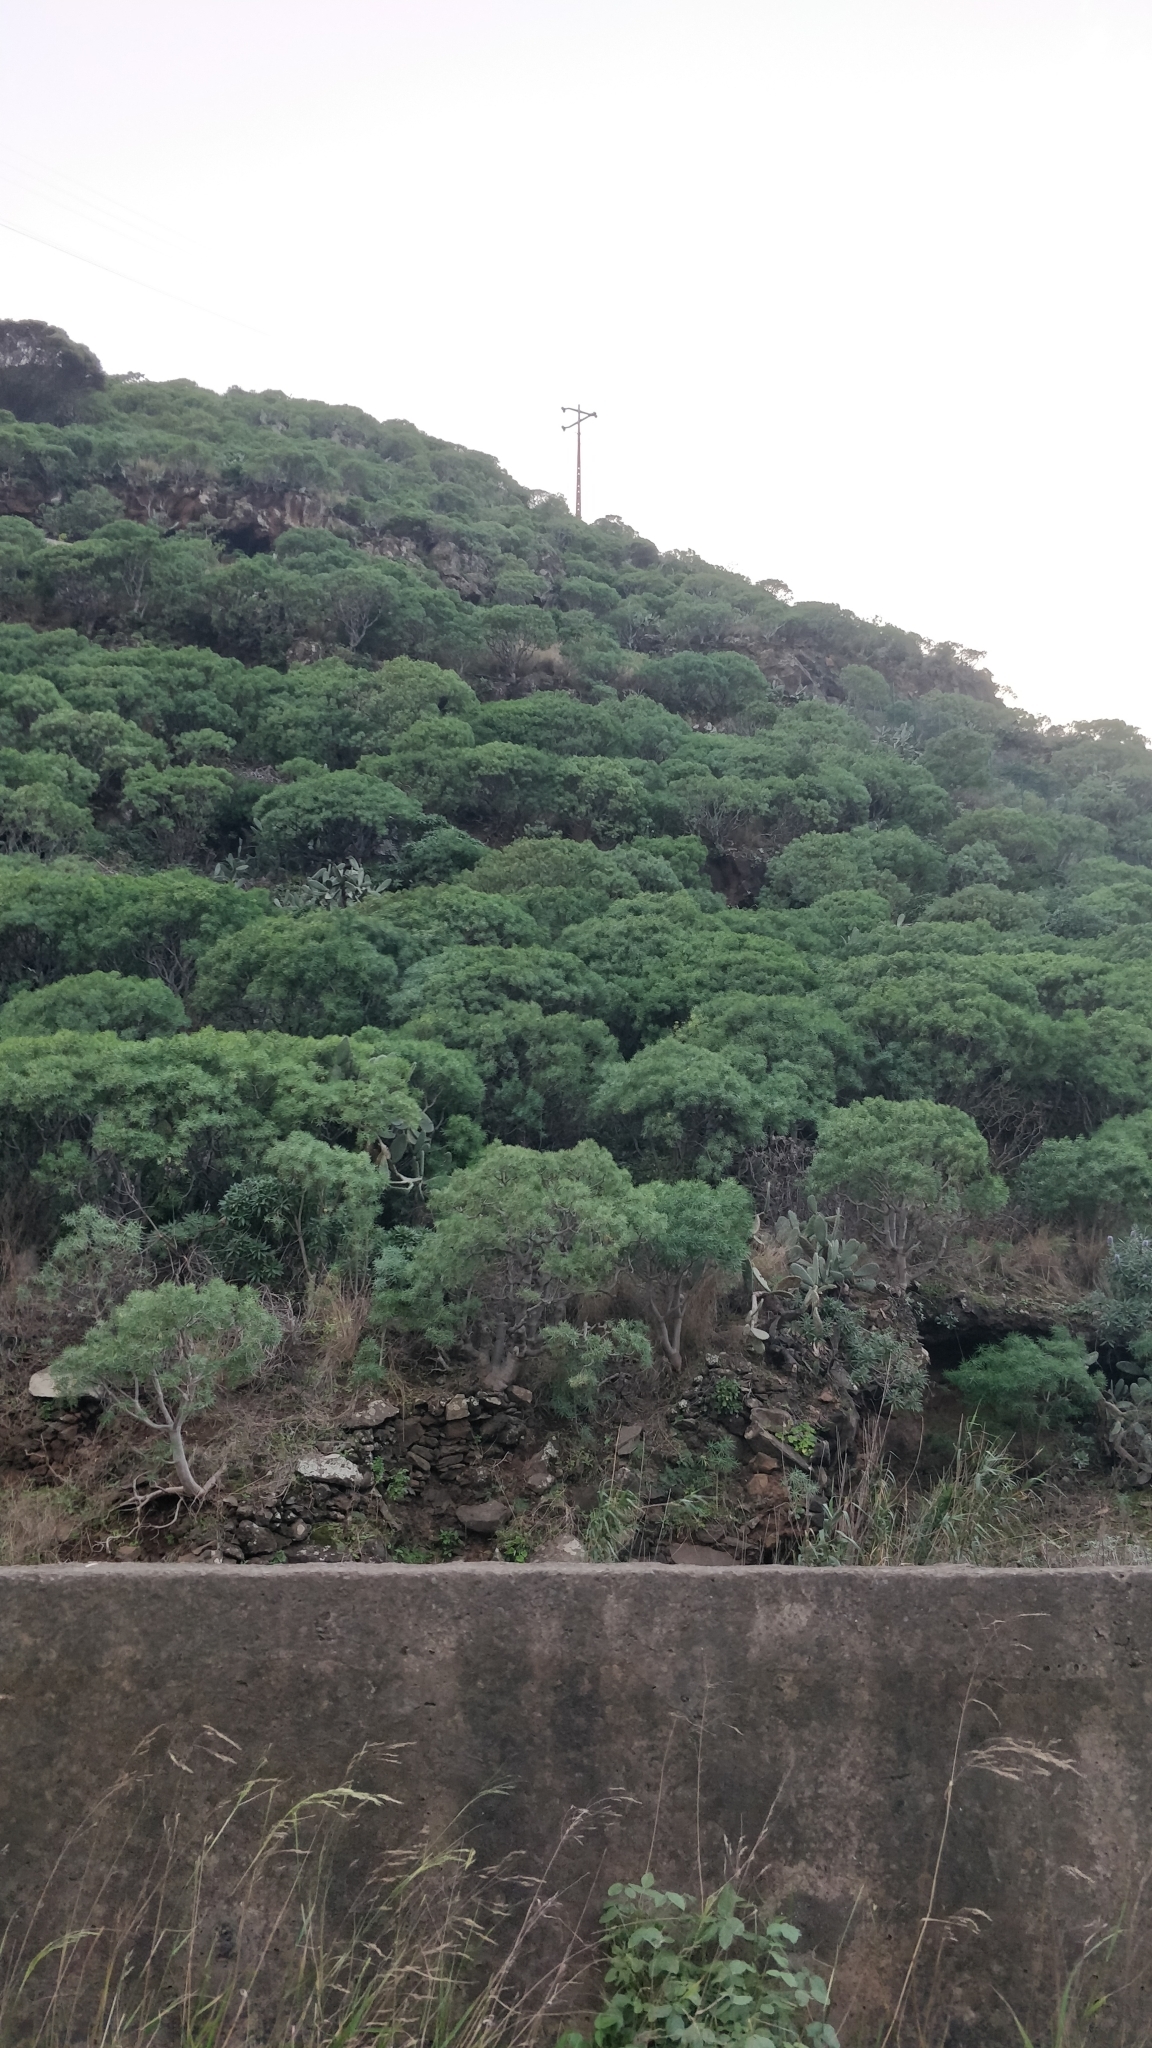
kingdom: Plantae
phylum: Tracheophyta
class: Magnoliopsida
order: Malpighiales
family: Euphorbiaceae
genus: Euphorbia
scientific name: Euphorbia piscatoria
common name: Fish-stunning spurge
